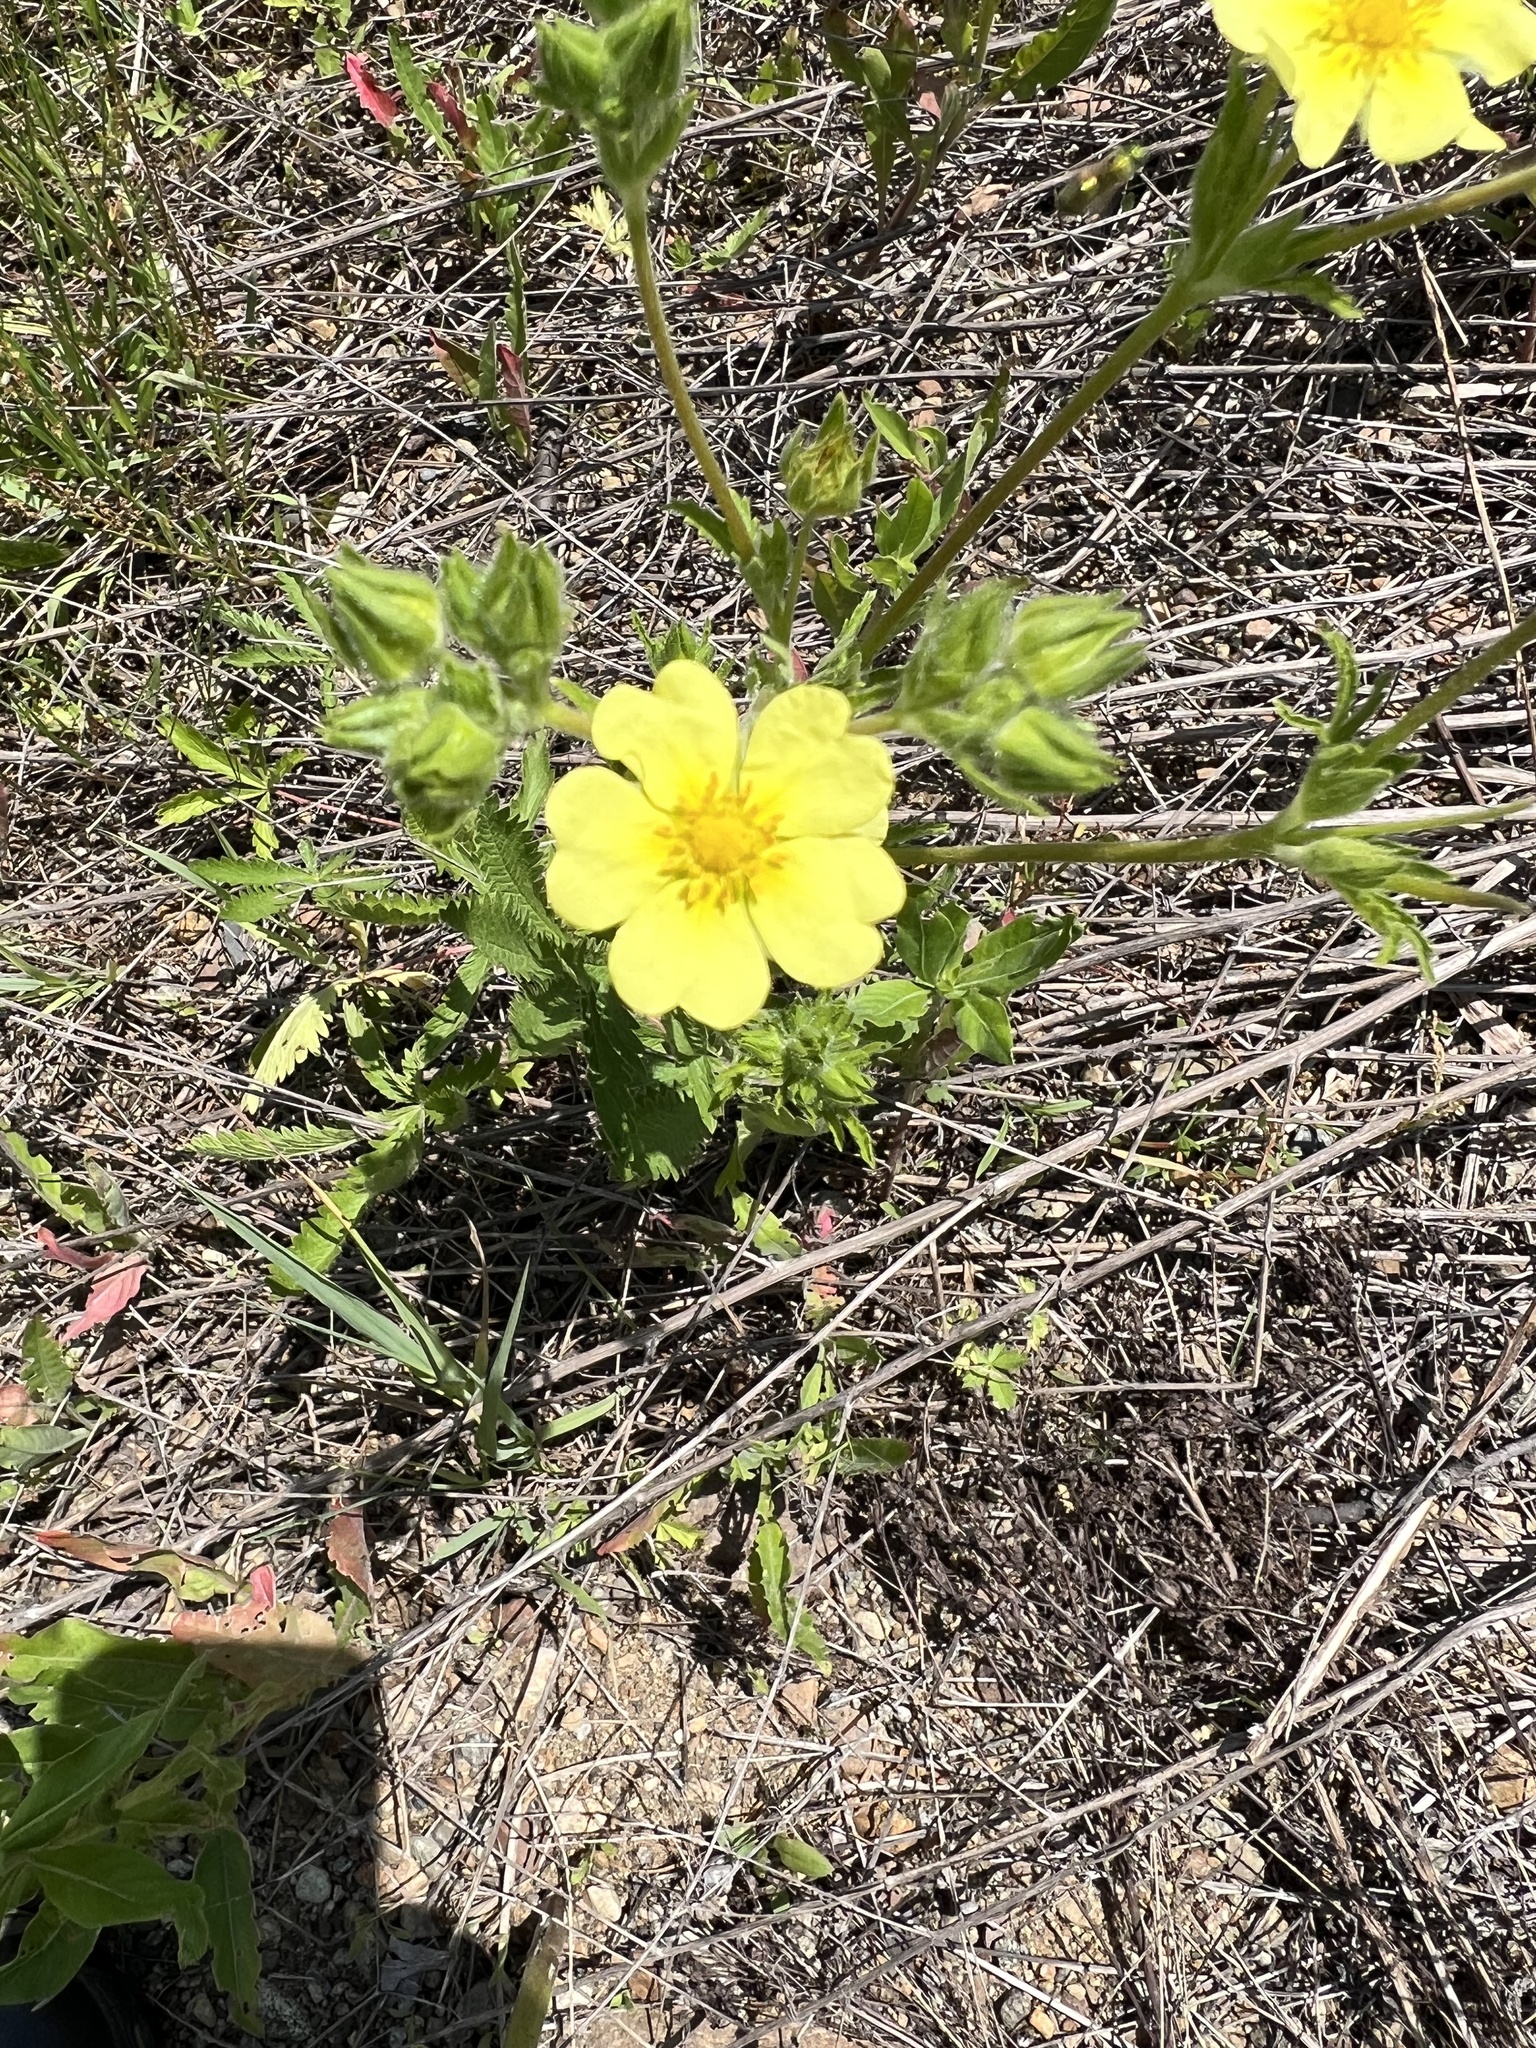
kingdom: Plantae
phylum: Tracheophyta
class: Magnoliopsida
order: Rosales
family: Rosaceae
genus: Potentilla
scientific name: Potentilla recta
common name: Sulphur cinquefoil
